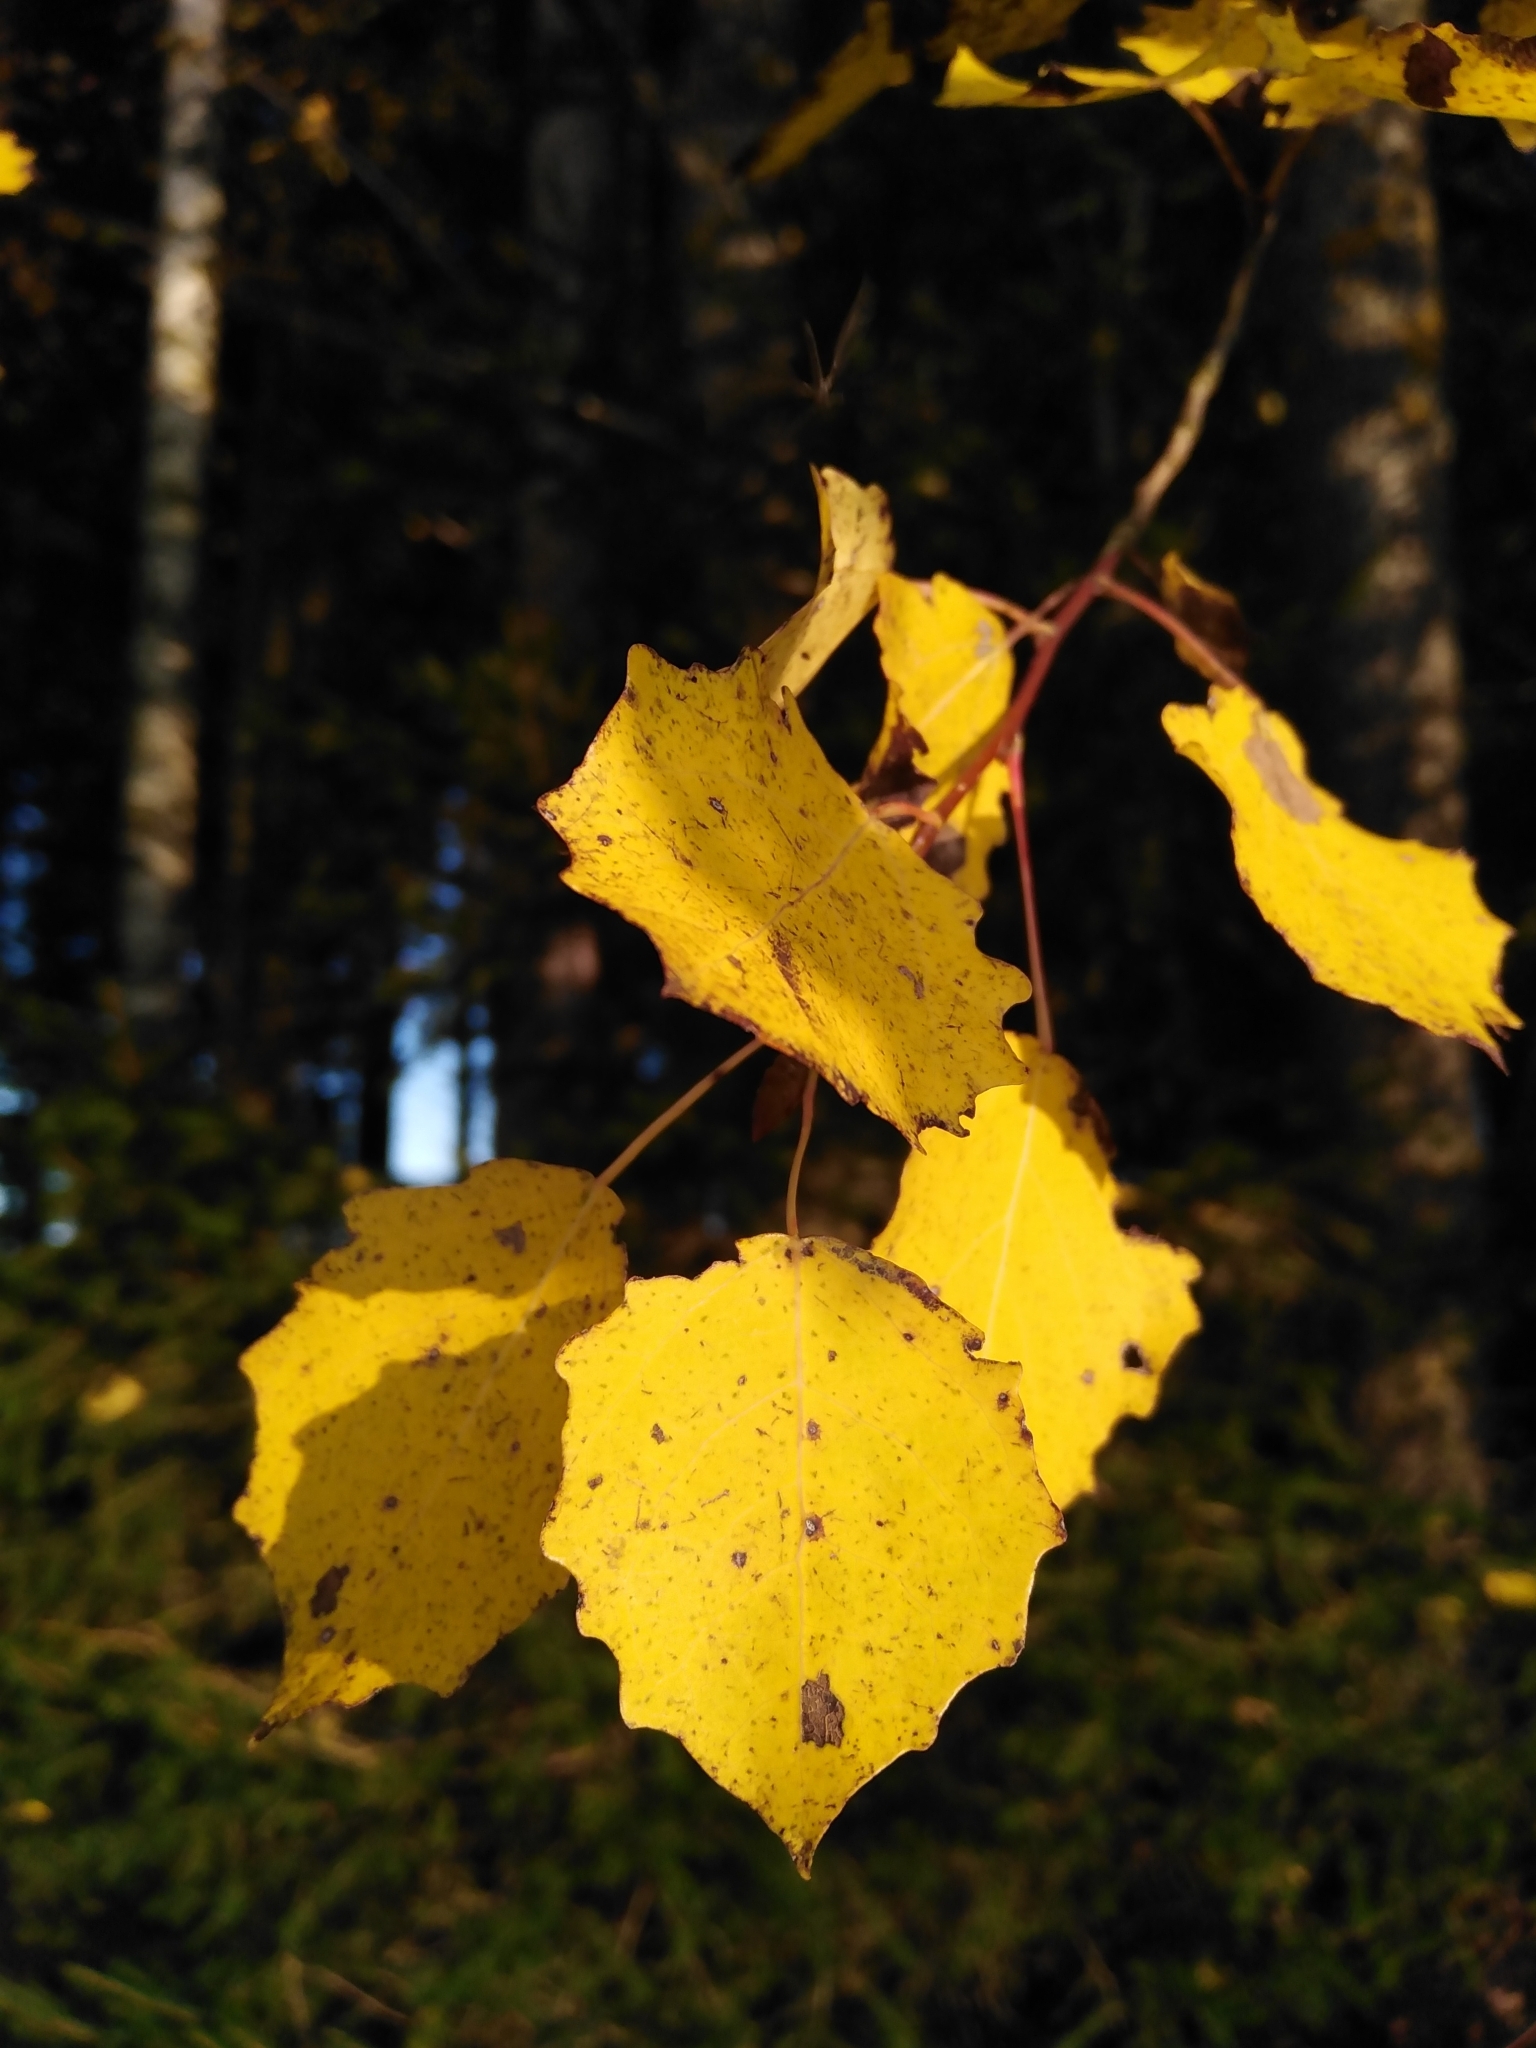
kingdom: Plantae
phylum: Tracheophyta
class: Magnoliopsida
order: Malpighiales
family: Salicaceae
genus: Populus
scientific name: Populus tremula
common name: European aspen
